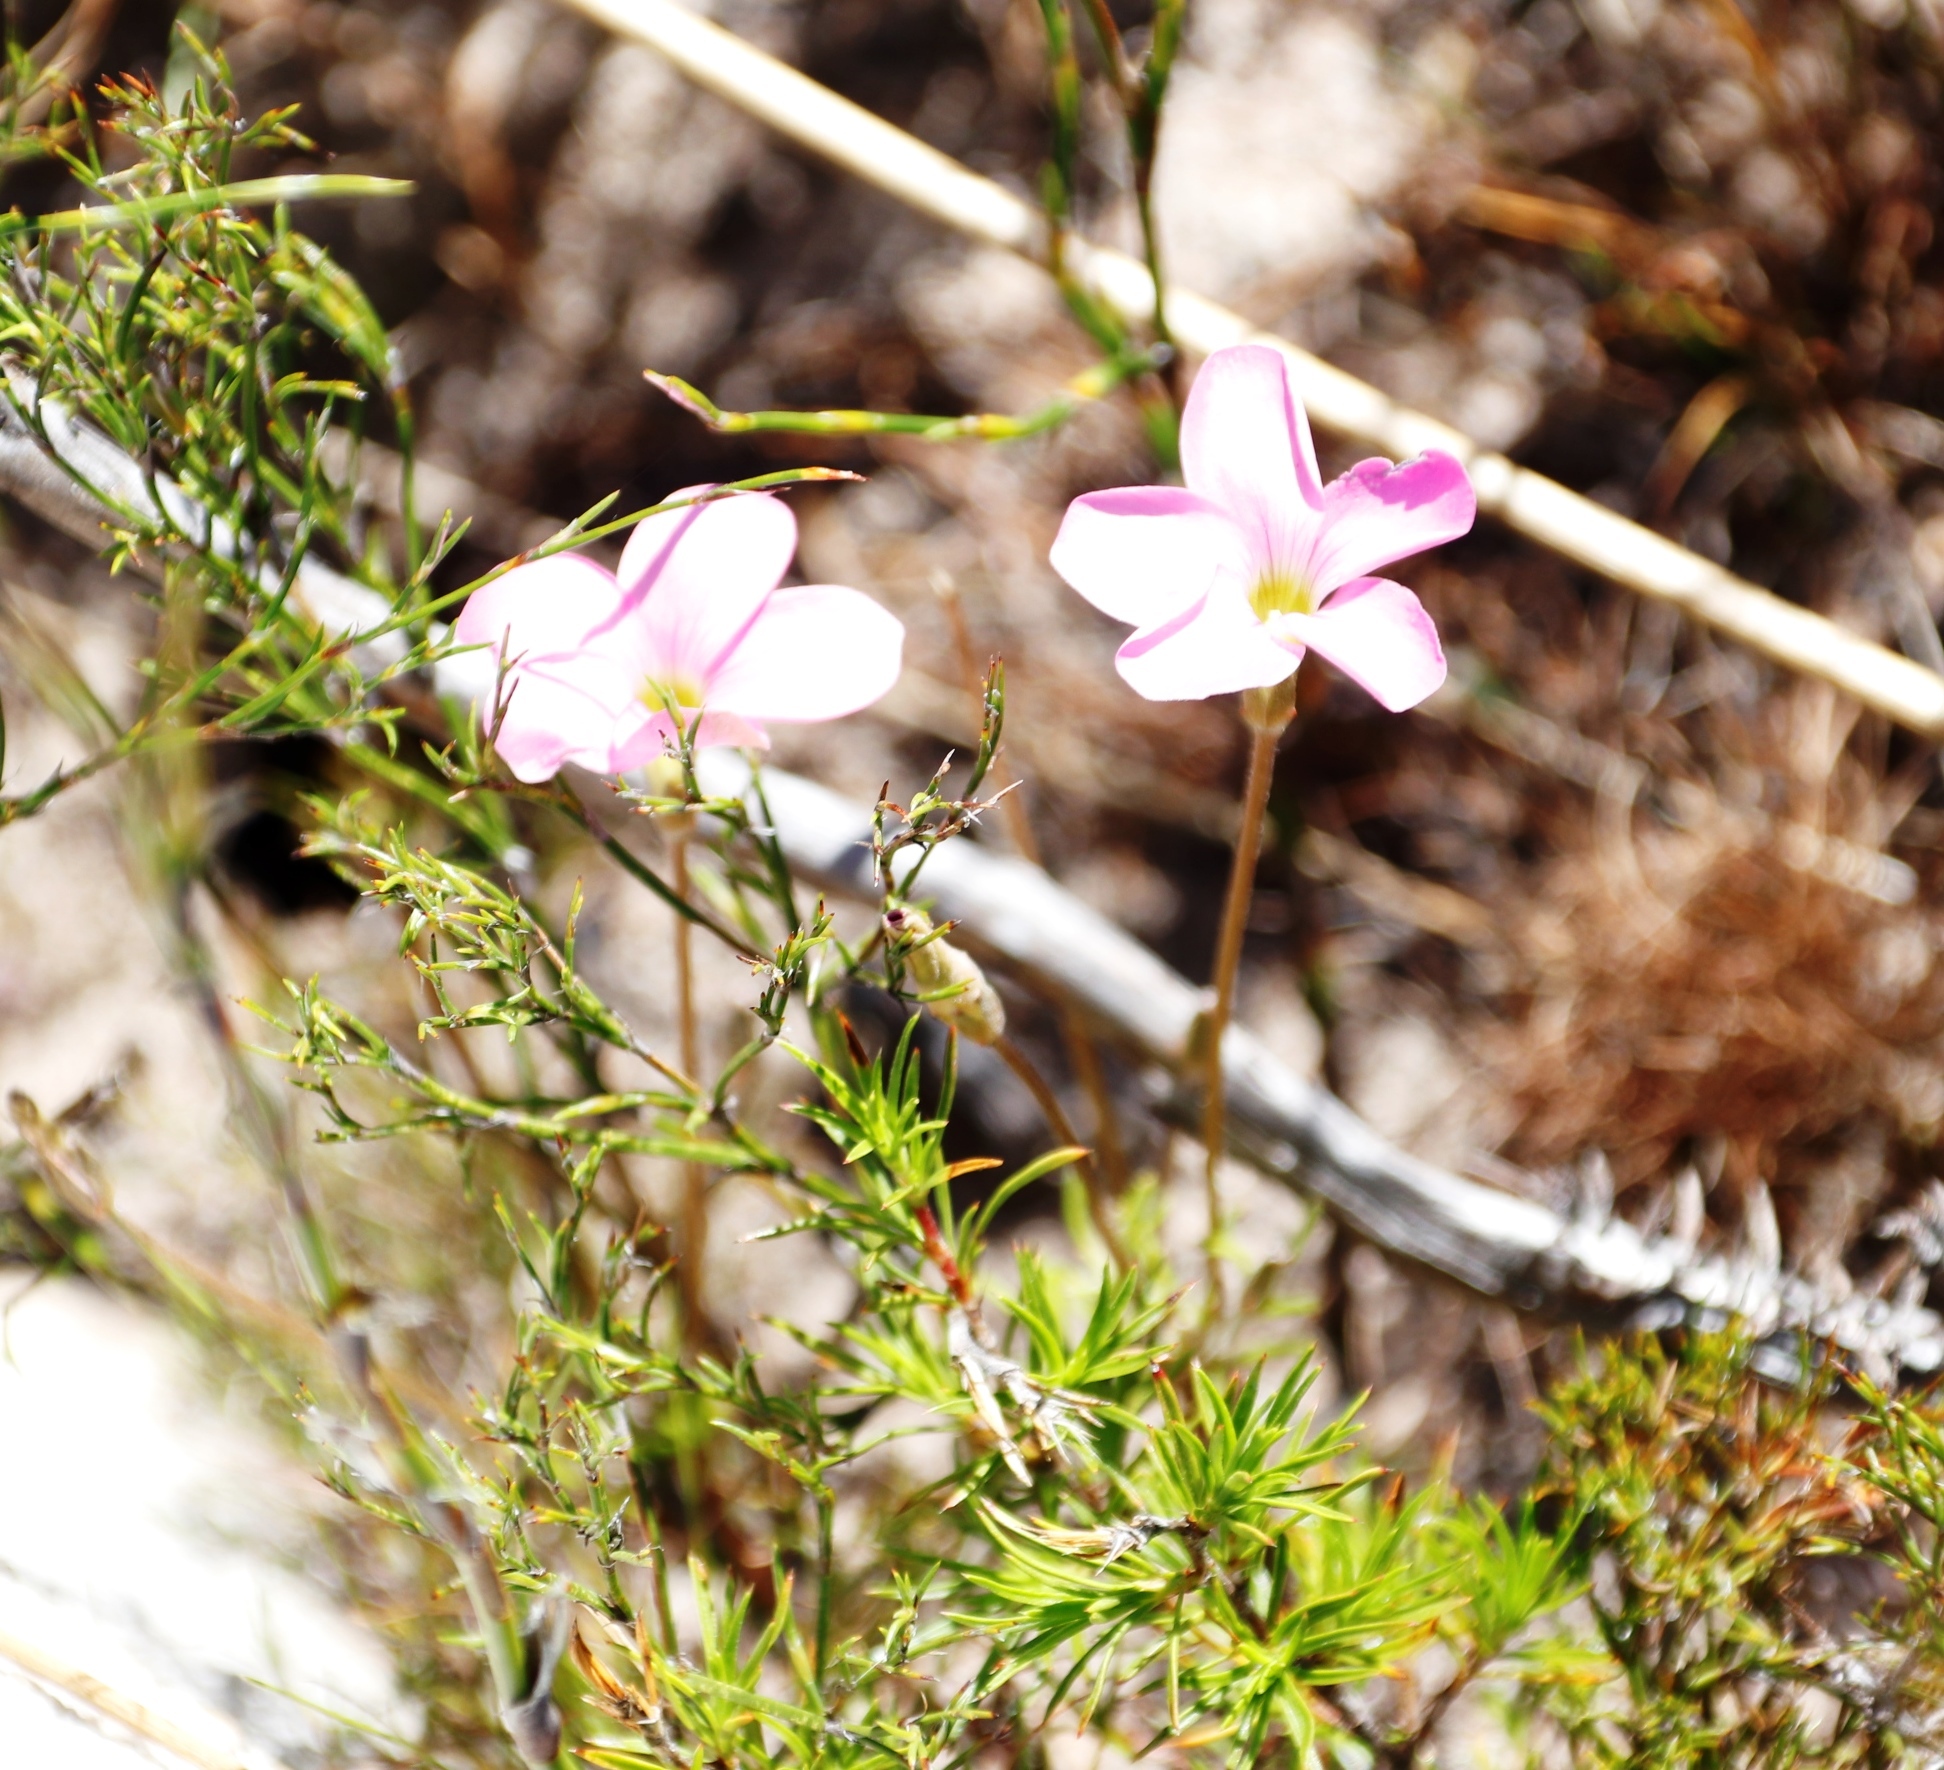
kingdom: Plantae
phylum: Tracheophyta
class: Magnoliopsida
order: Oxalidales
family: Oxalidaceae
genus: Oxalis
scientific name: Oxalis polyphylla
